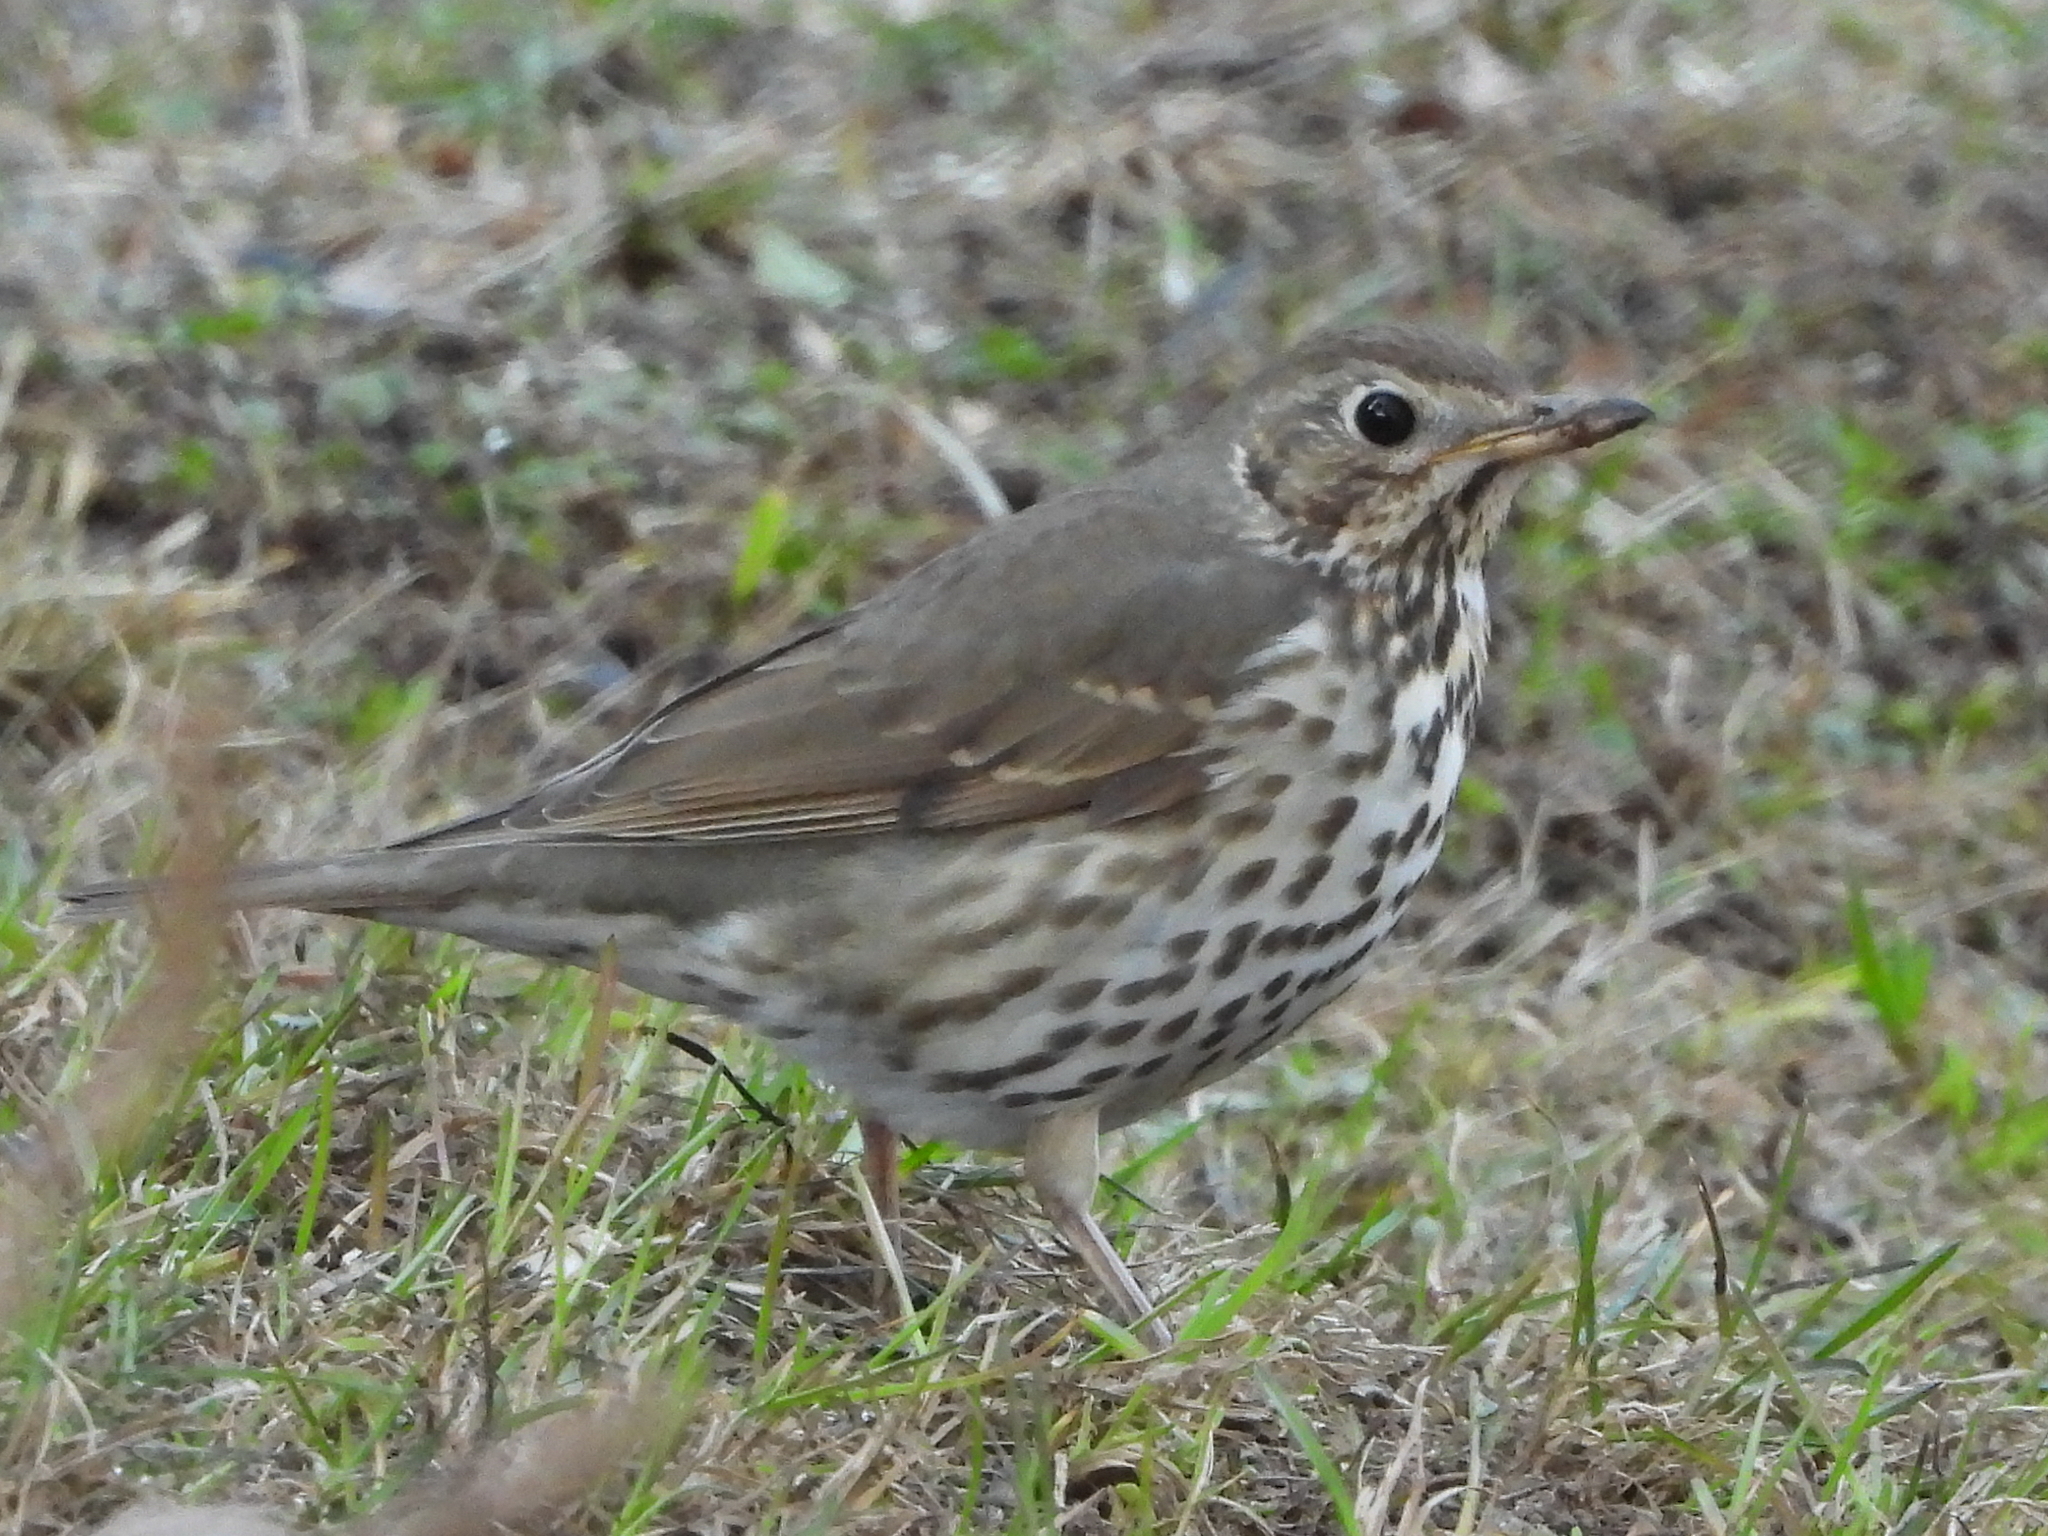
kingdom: Animalia
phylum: Chordata
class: Aves
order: Passeriformes
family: Turdidae
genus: Turdus
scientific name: Turdus philomelos
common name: Song thrush
